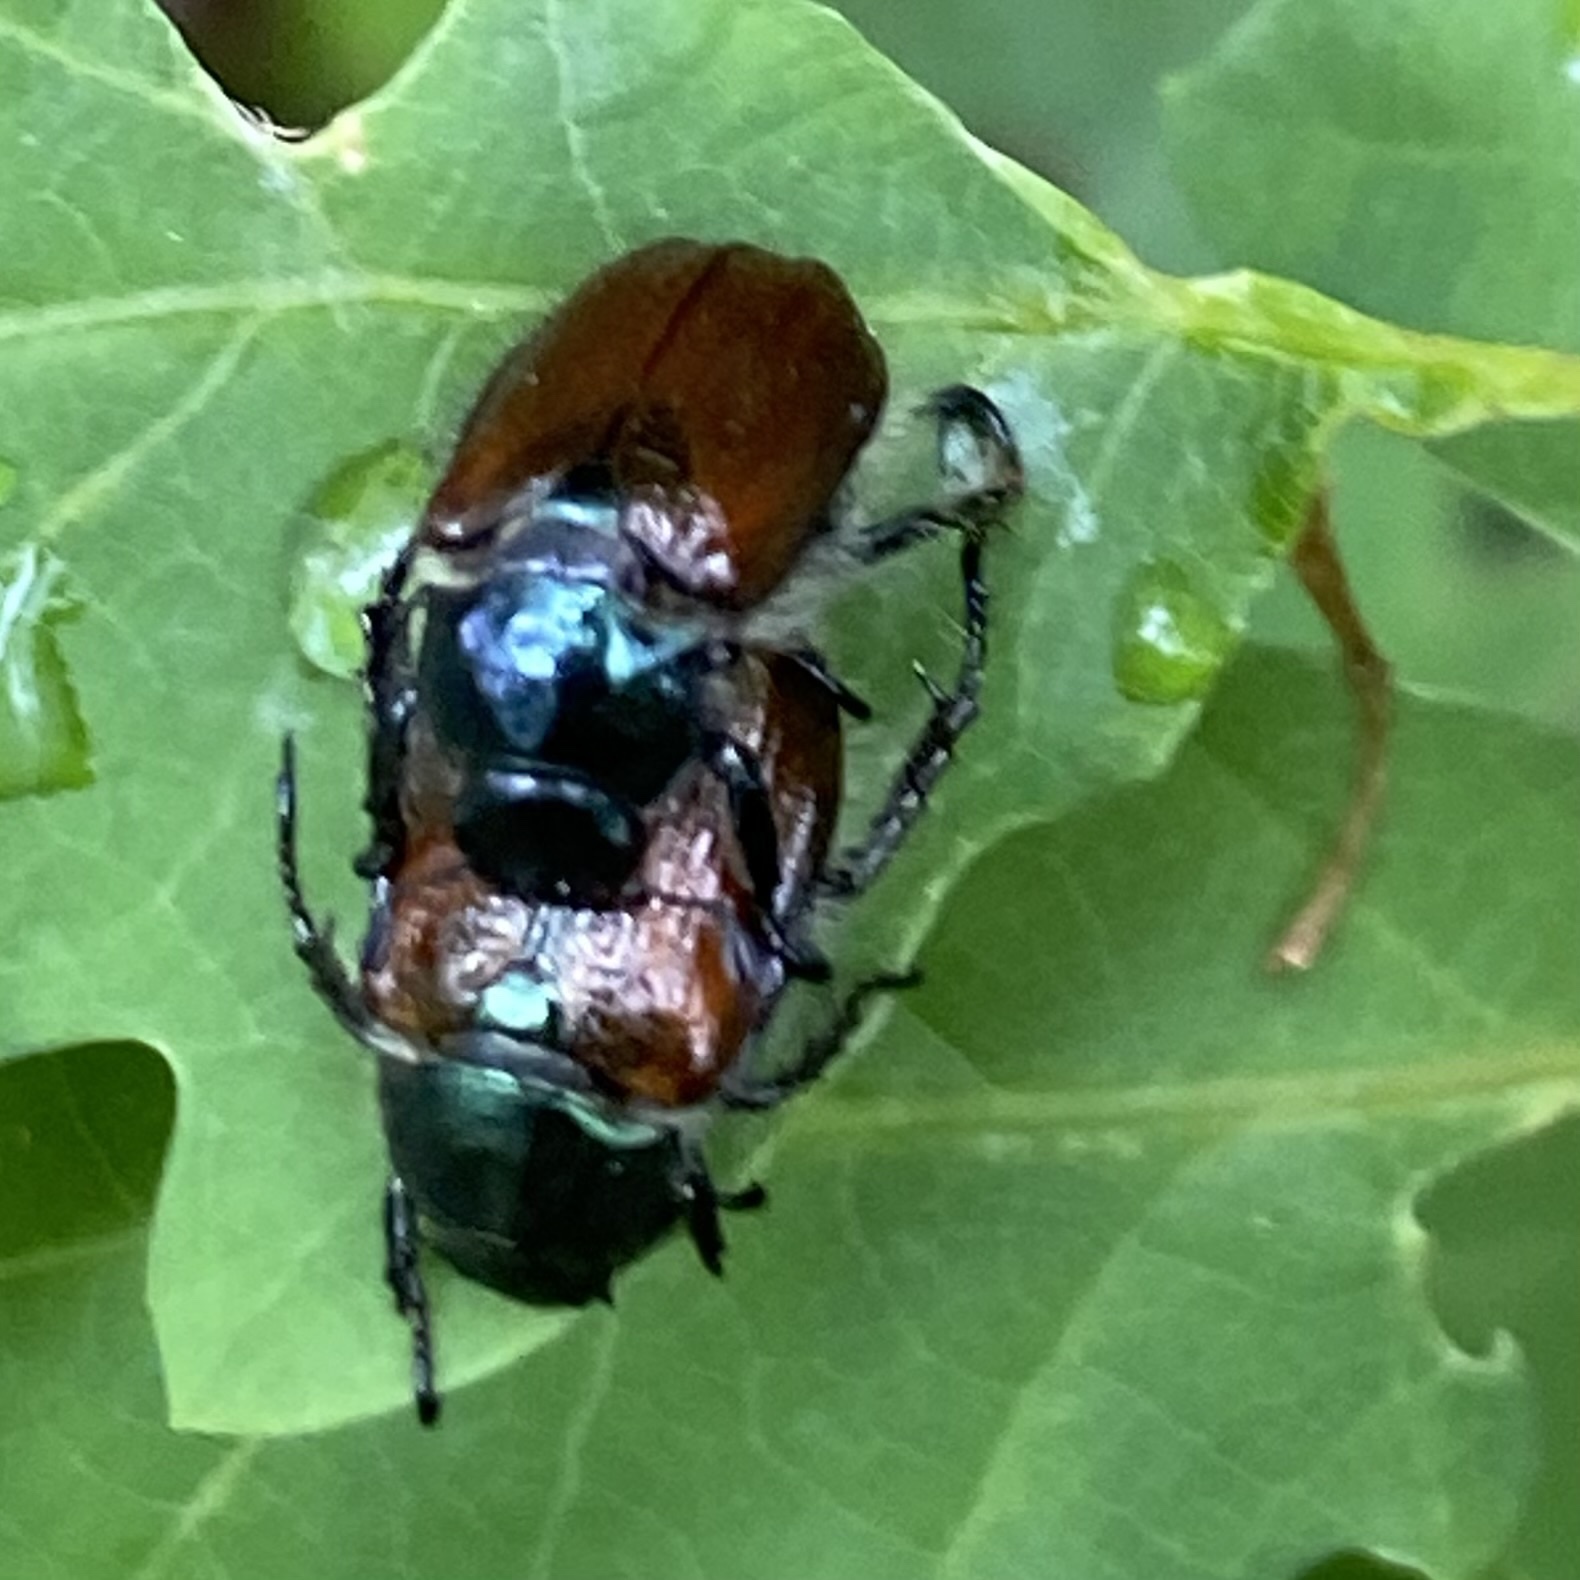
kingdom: Animalia
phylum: Arthropoda
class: Insecta
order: Coleoptera
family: Scarabaeidae
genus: Phyllopertha
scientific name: Phyllopertha horticola
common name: Garden chafer
